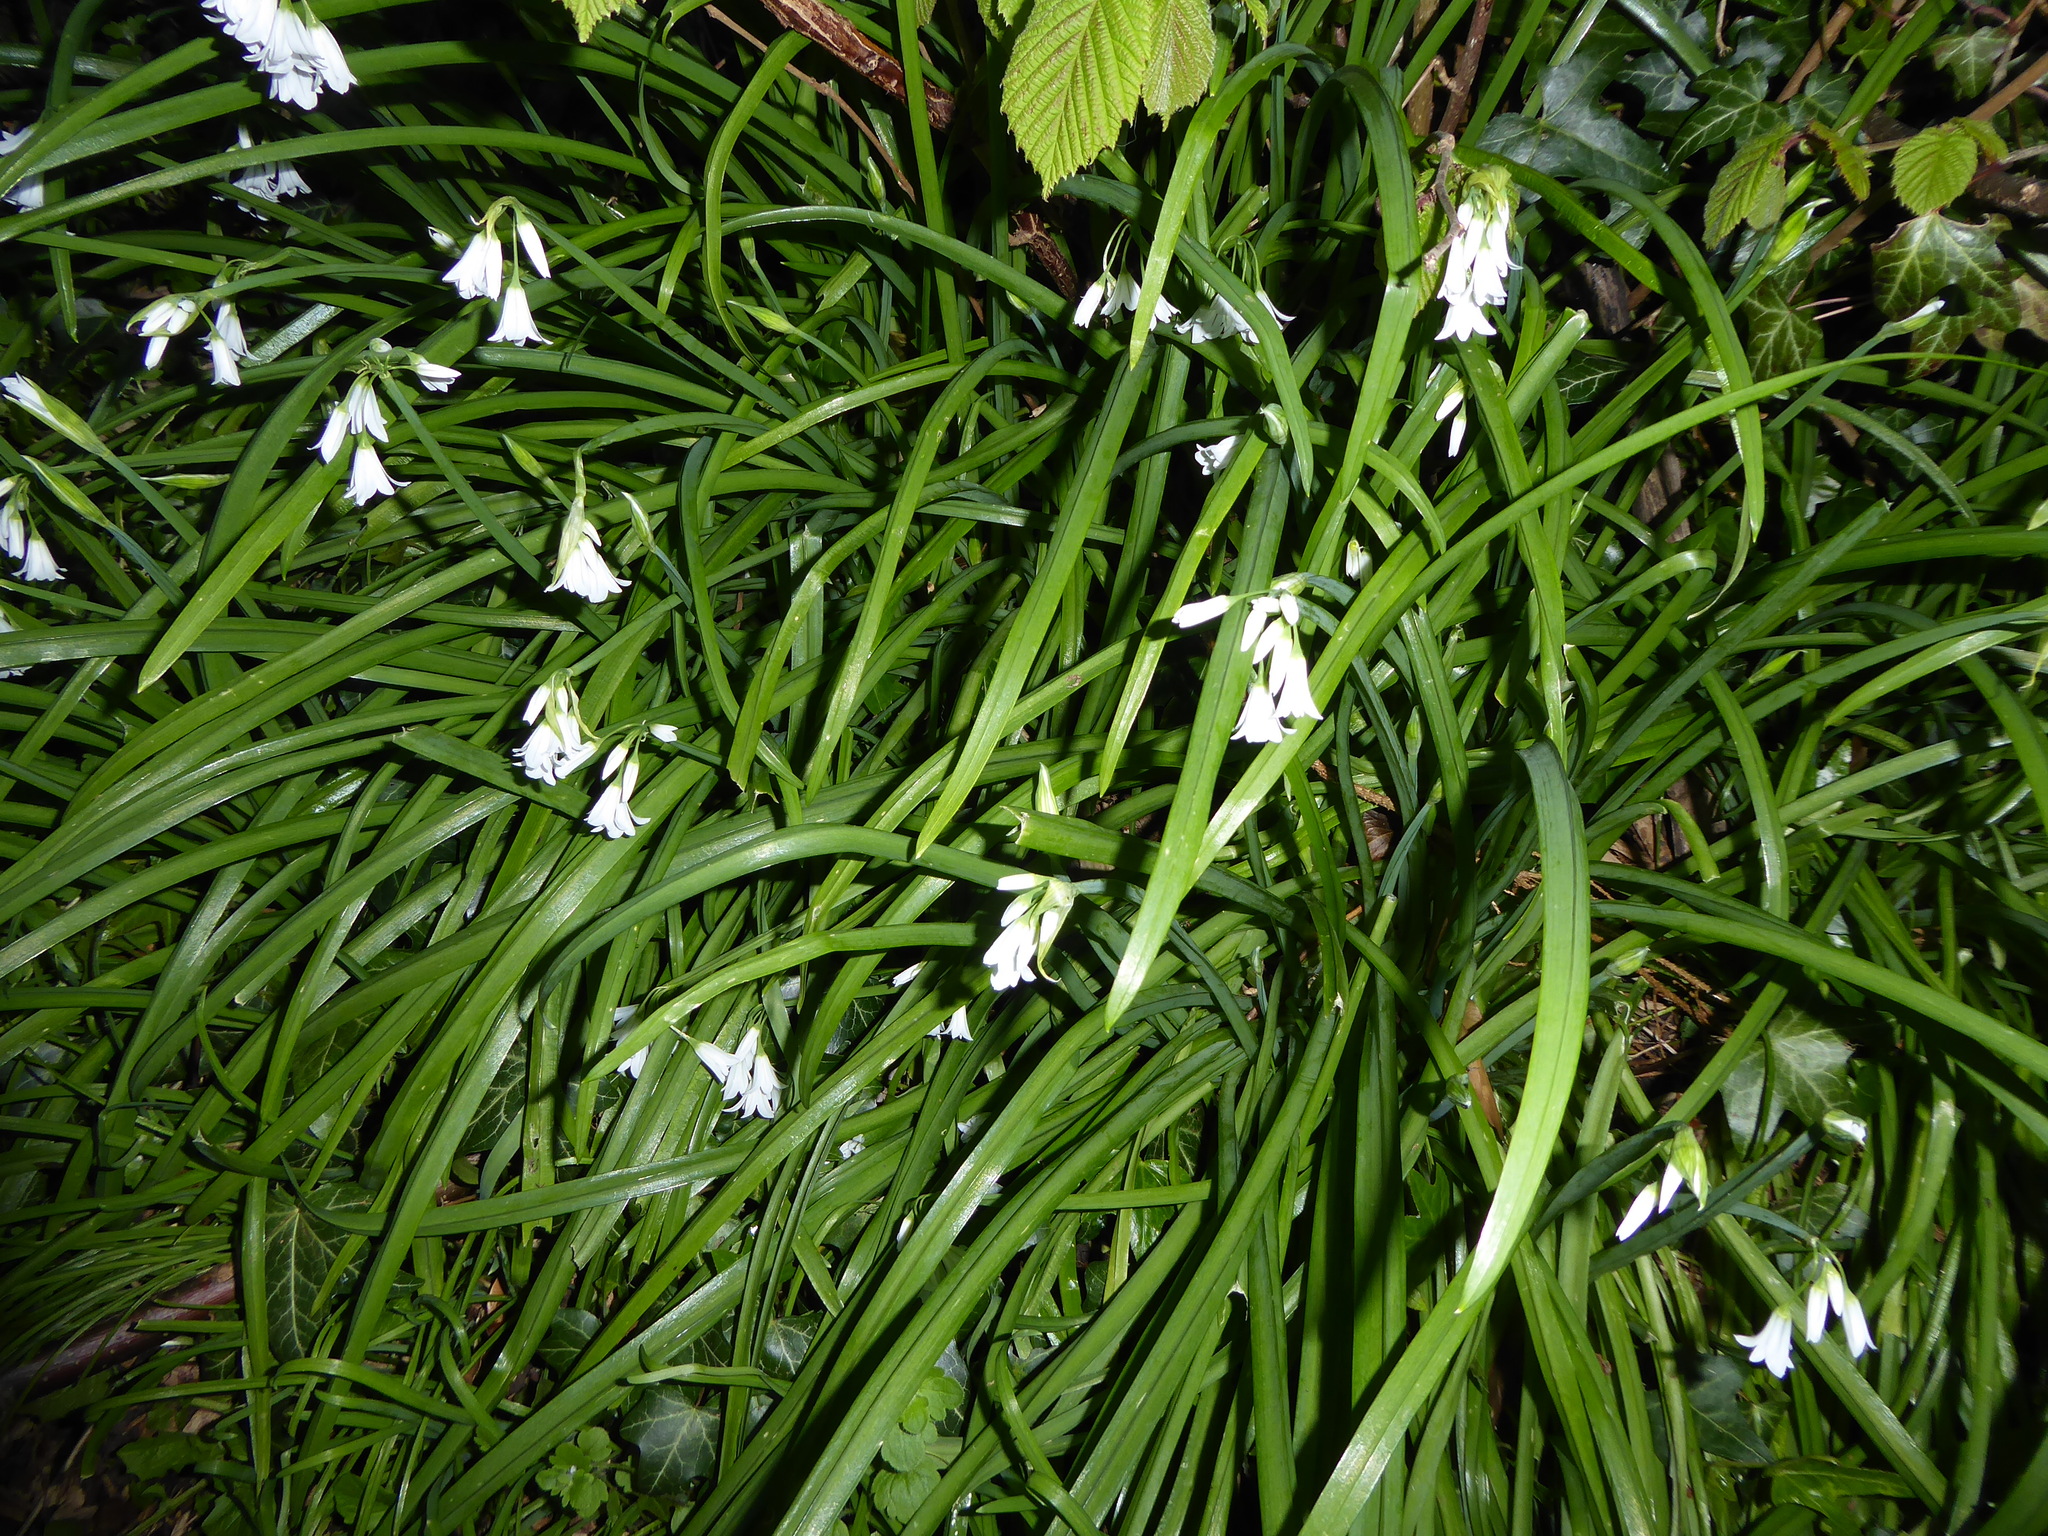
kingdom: Plantae
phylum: Tracheophyta
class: Liliopsida
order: Asparagales
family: Amaryllidaceae
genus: Allium
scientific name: Allium triquetrum
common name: Three-cornered garlic
